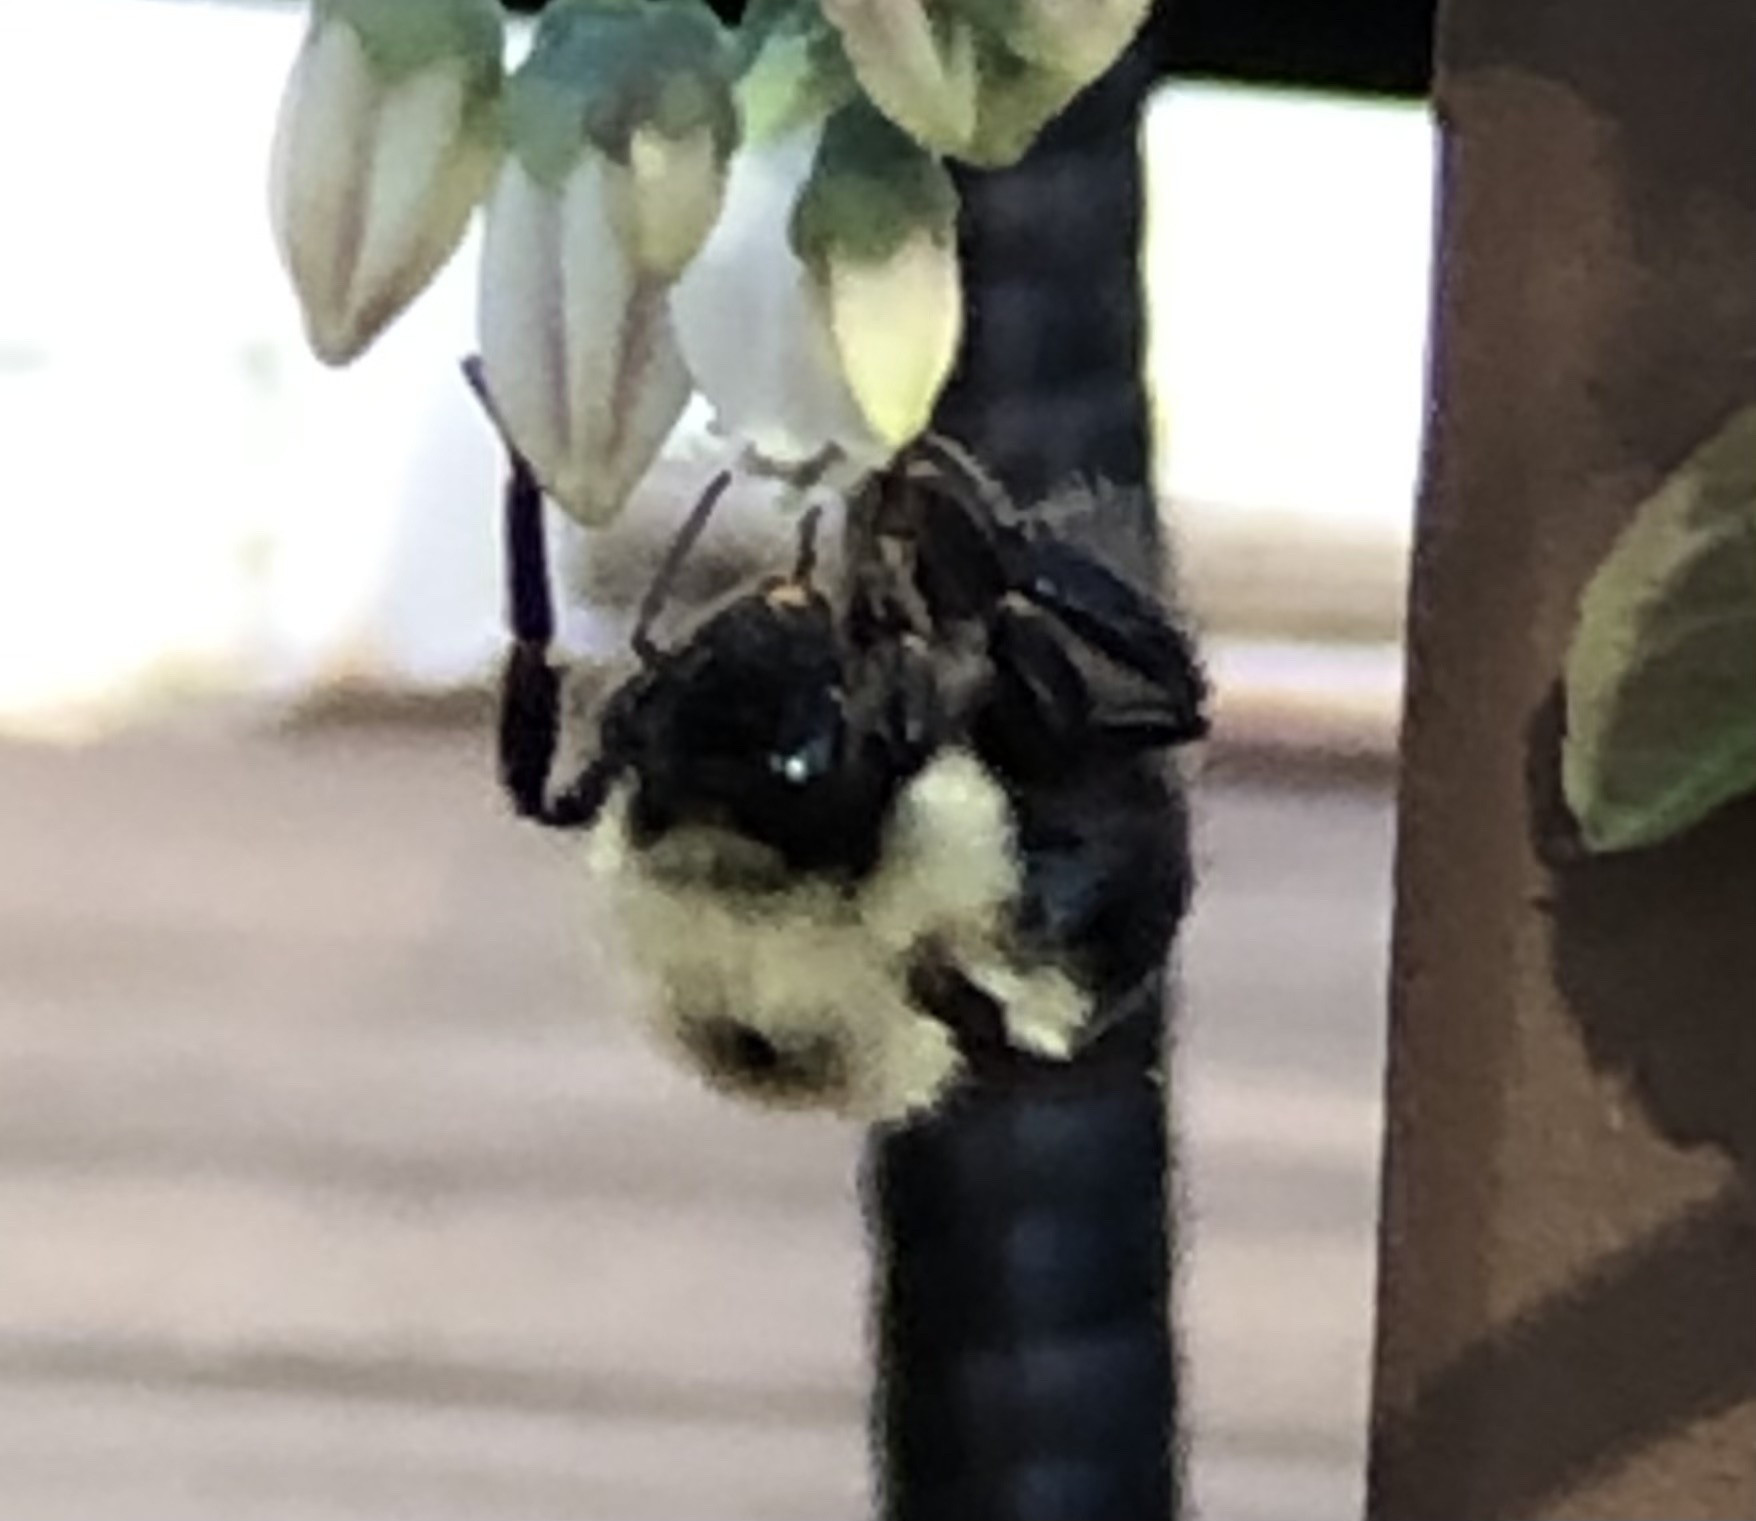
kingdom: Animalia
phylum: Arthropoda
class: Insecta
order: Hymenoptera
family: Apidae
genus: Bombus
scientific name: Bombus bimaculatus
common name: Two-spotted bumble bee
